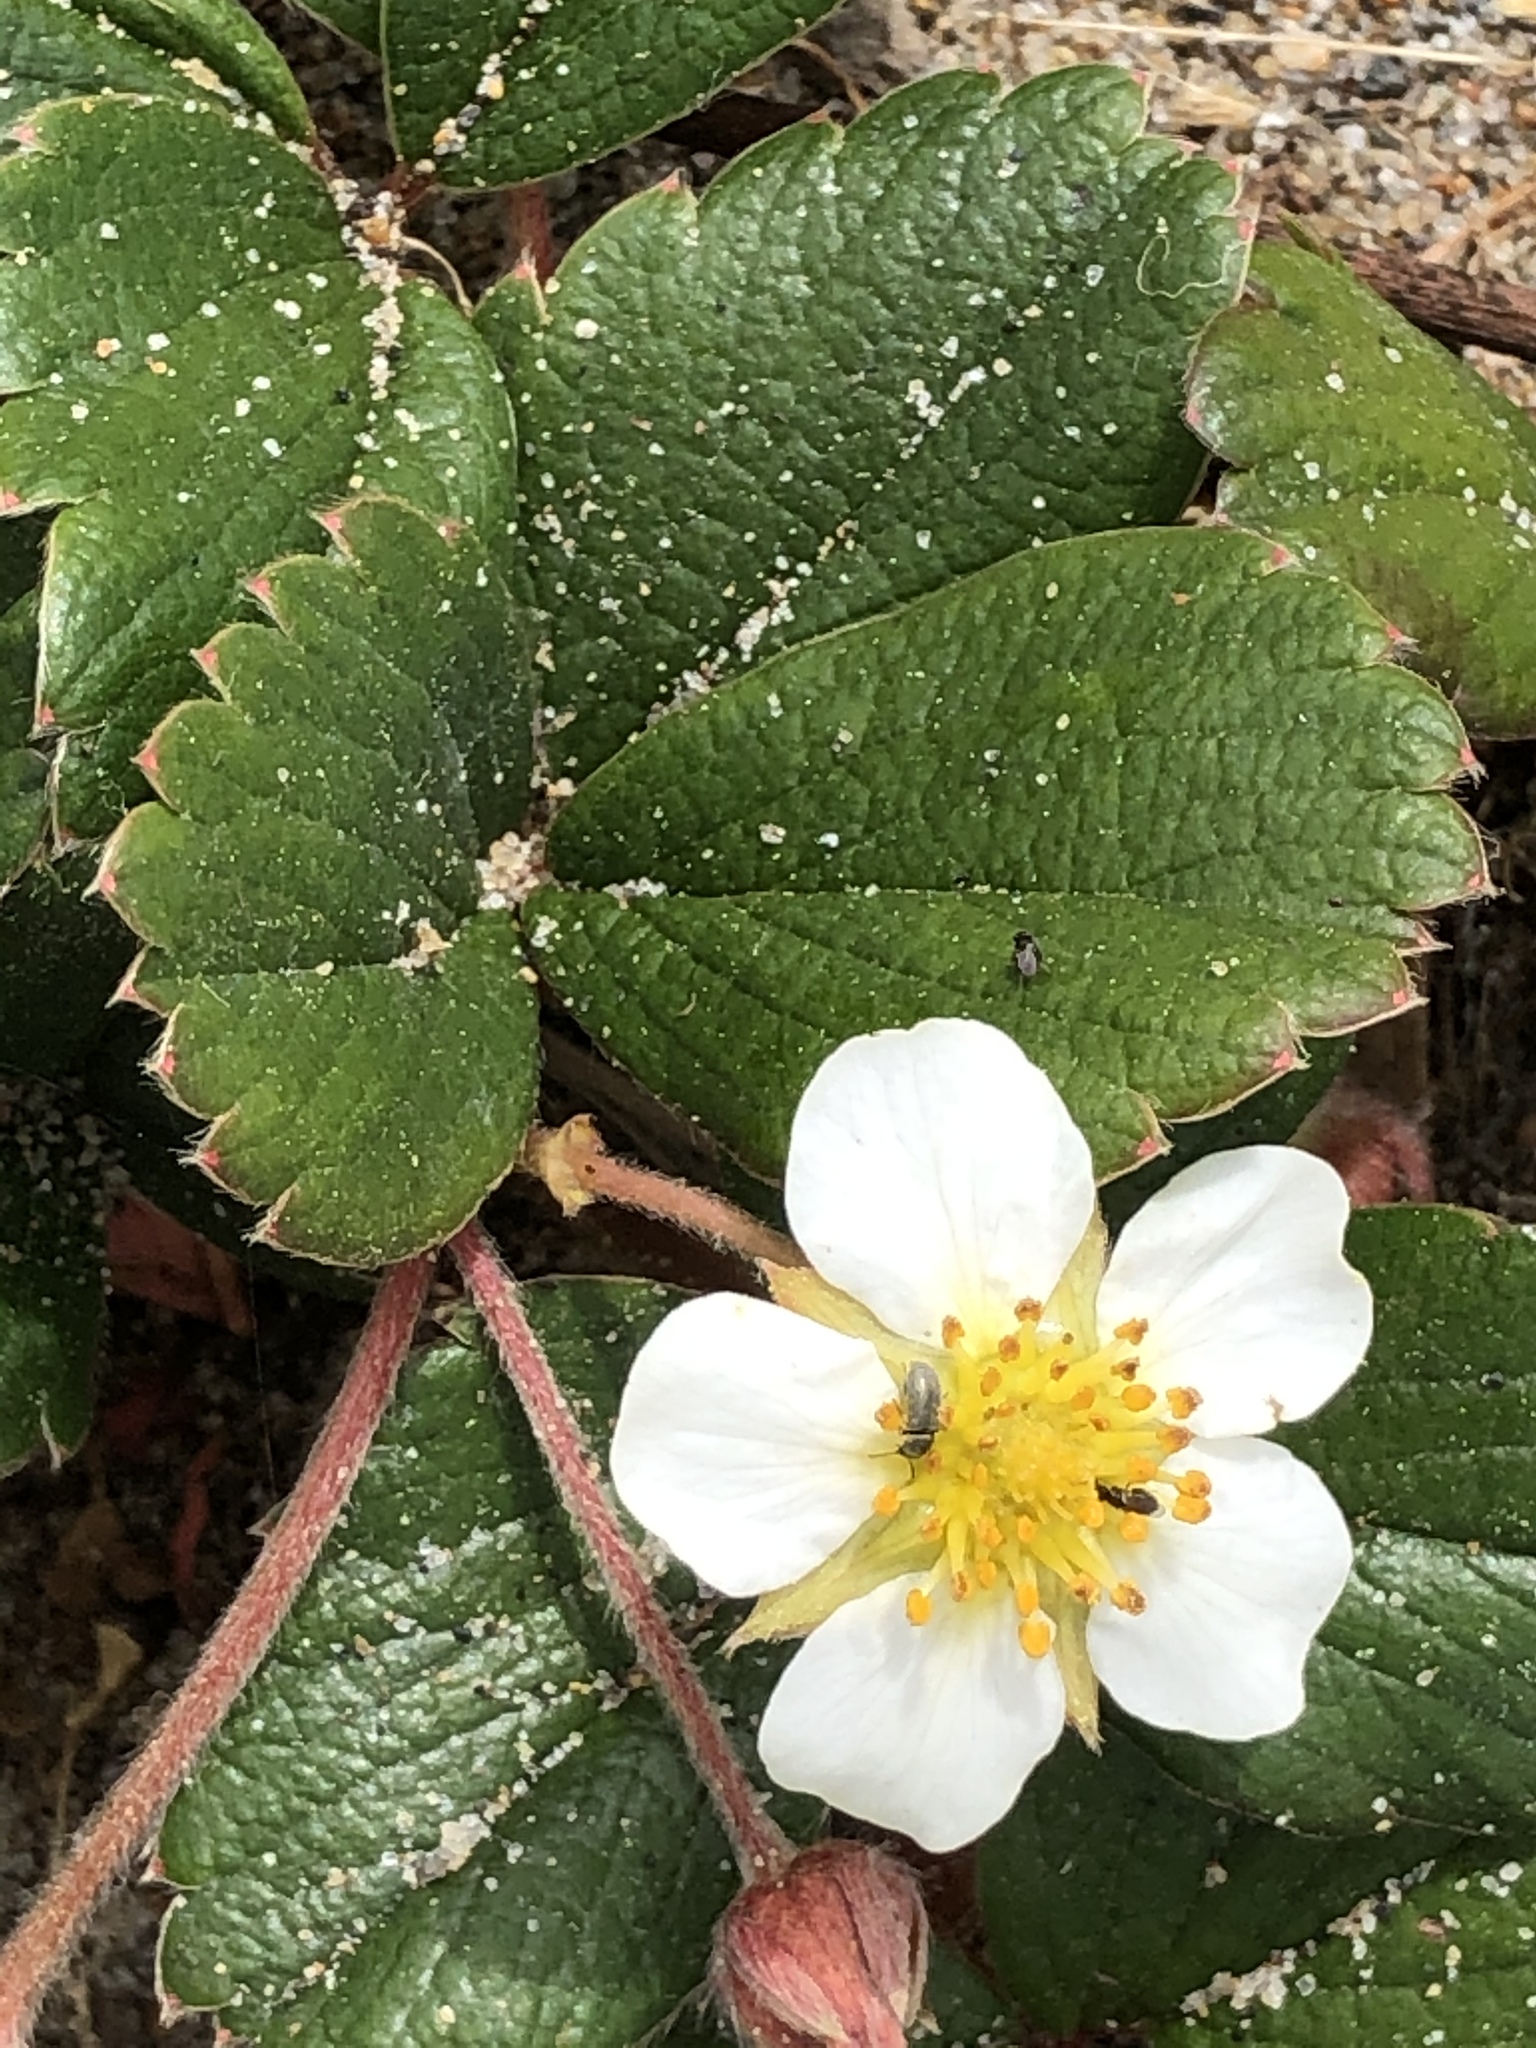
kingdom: Plantae
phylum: Tracheophyta
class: Magnoliopsida
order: Rosales
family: Rosaceae
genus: Fragaria
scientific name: Fragaria chiloensis
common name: Beach strawberry
